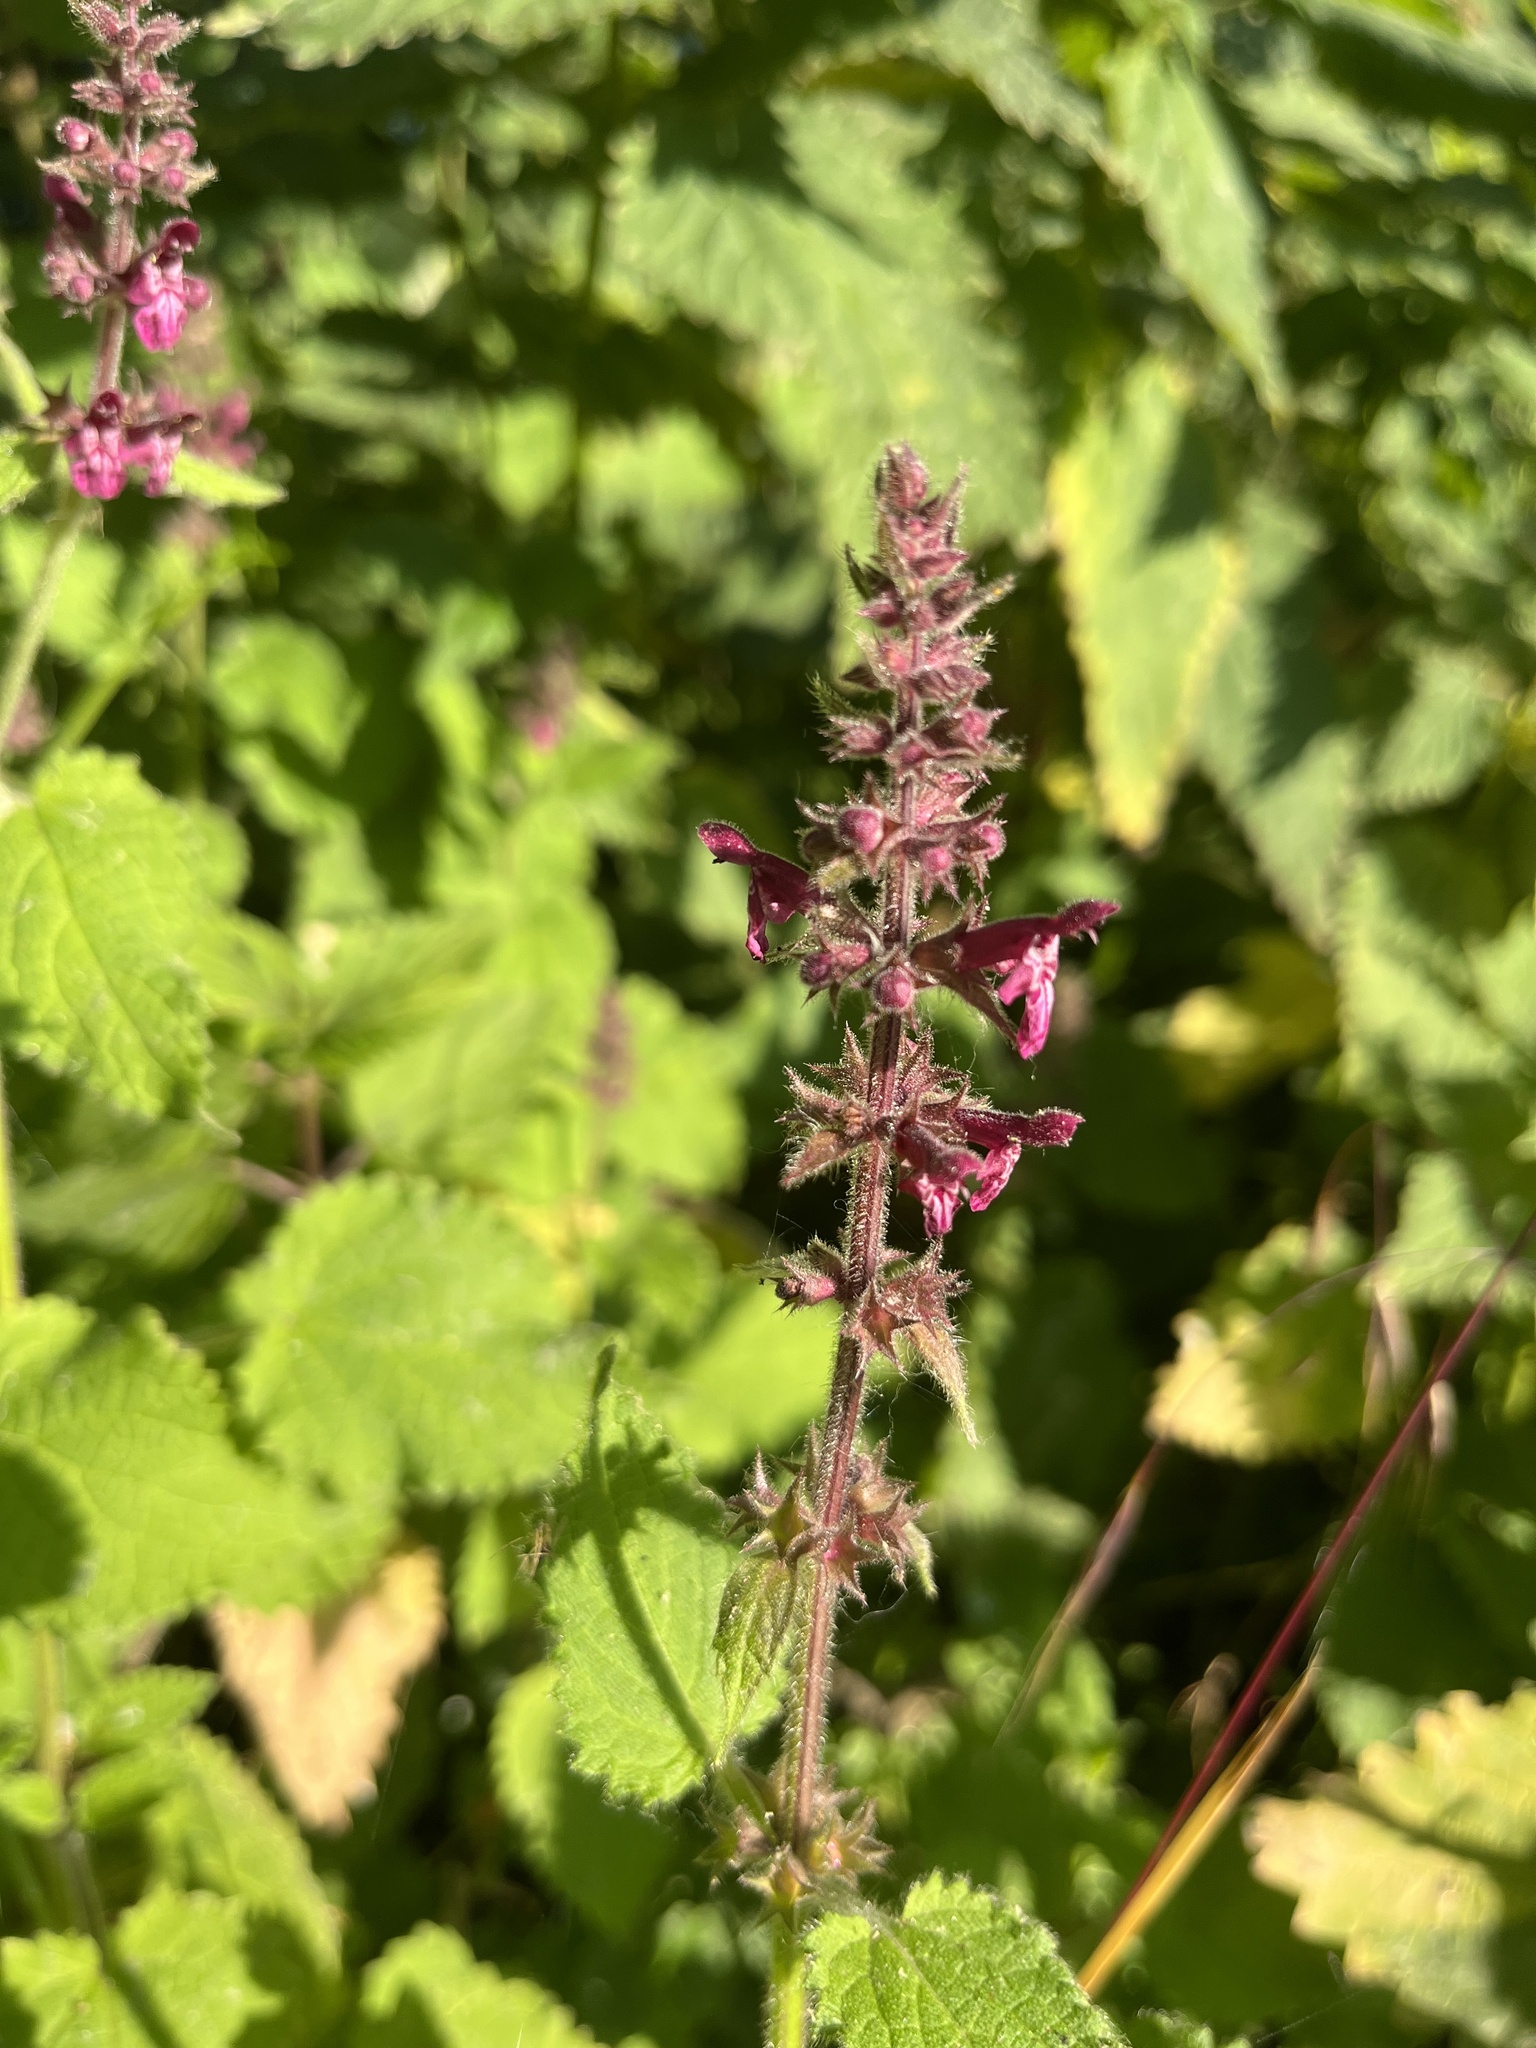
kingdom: Plantae
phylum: Tracheophyta
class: Magnoliopsida
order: Lamiales
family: Lamiaceae
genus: Stachys
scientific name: Stachys sylvatica
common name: Hedge woundwort
